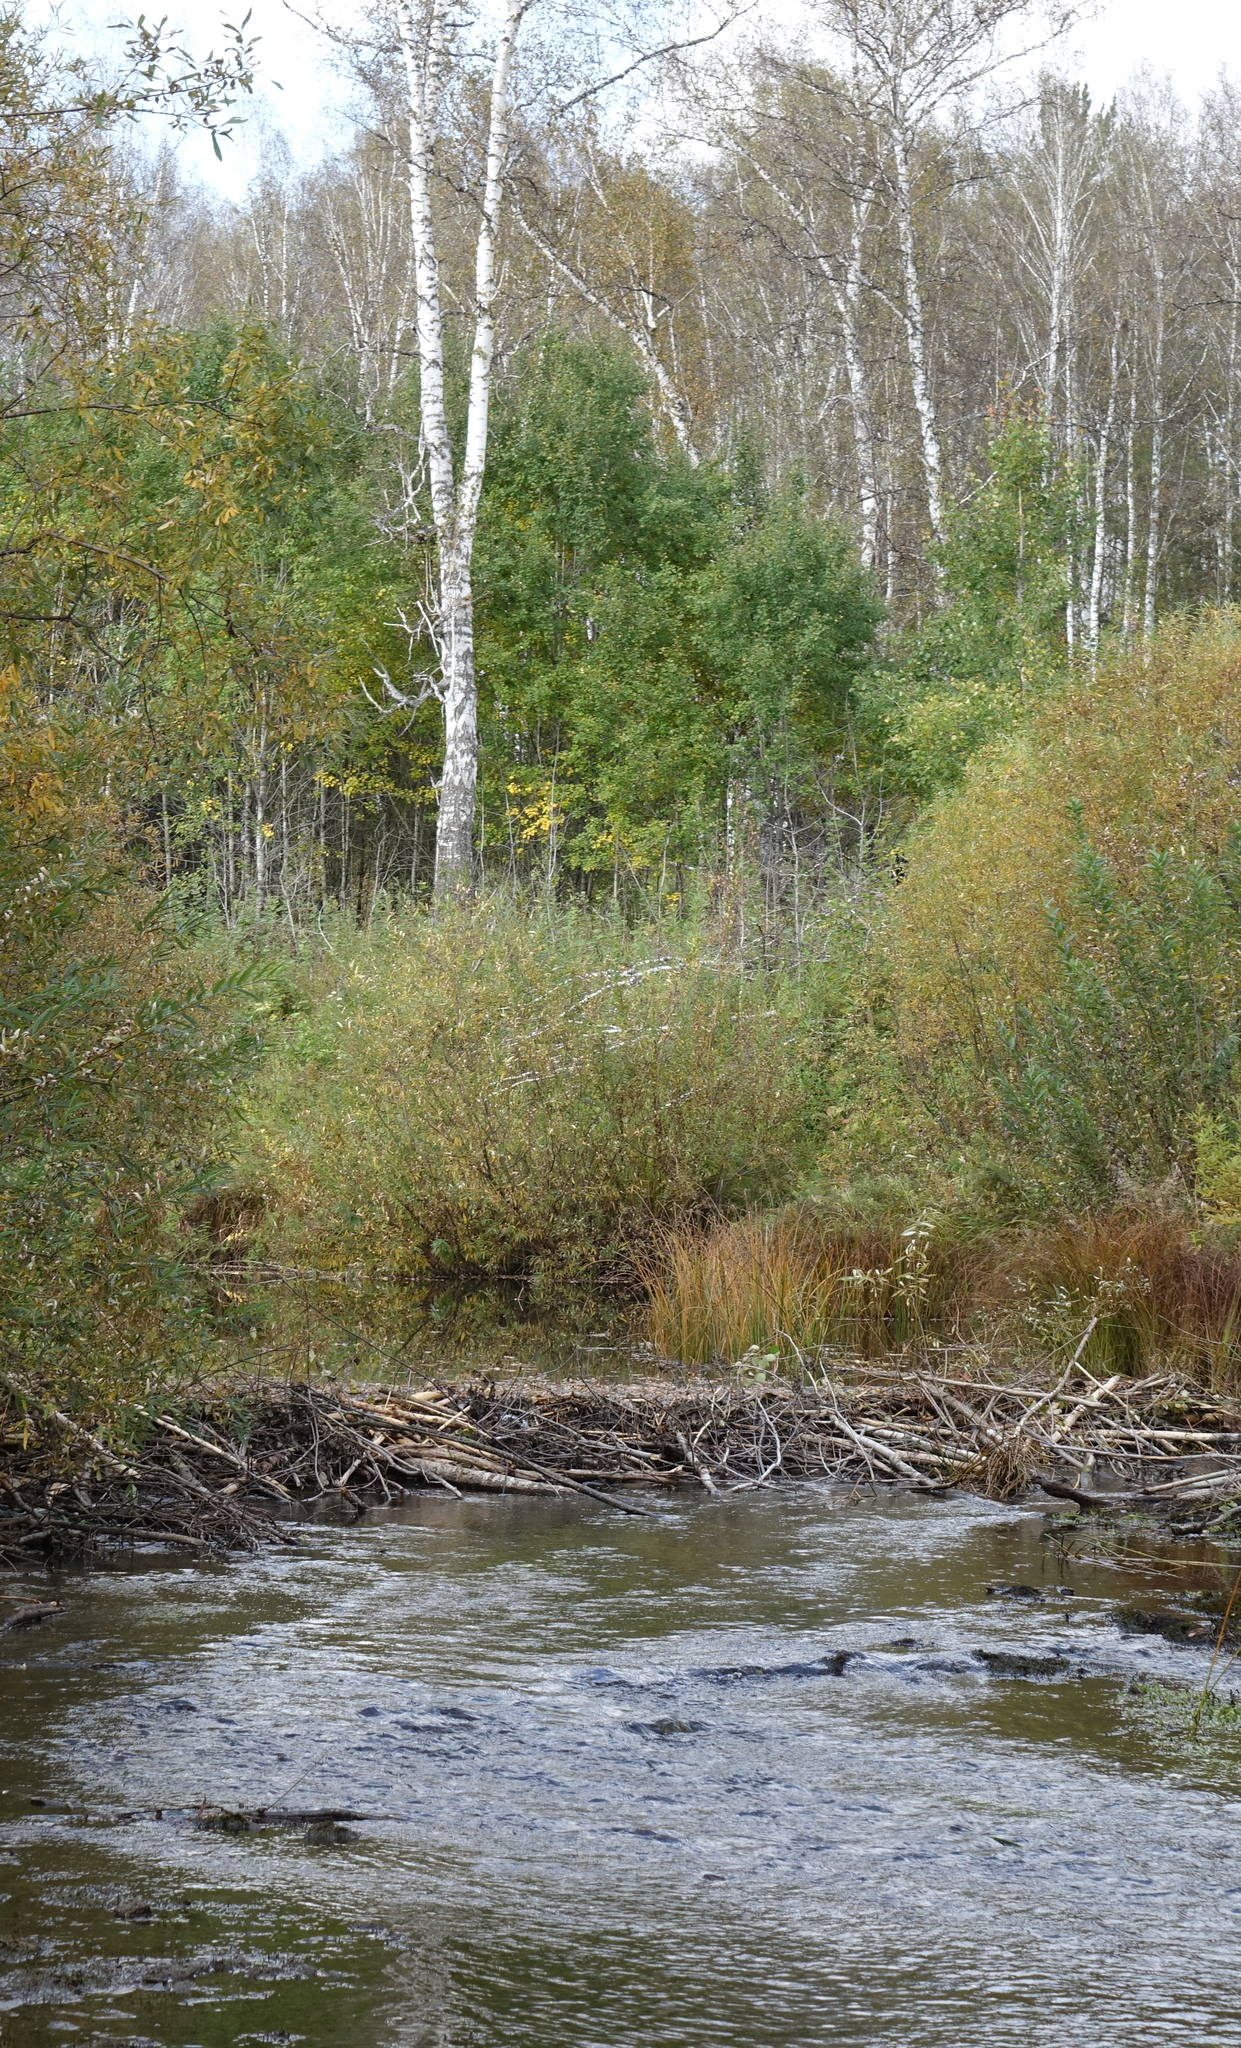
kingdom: Animalia
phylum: Chordata
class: Mammalia
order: Rodentia
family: Castoridae
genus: Castor
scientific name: Castor fiber
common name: Eurasian beaver
